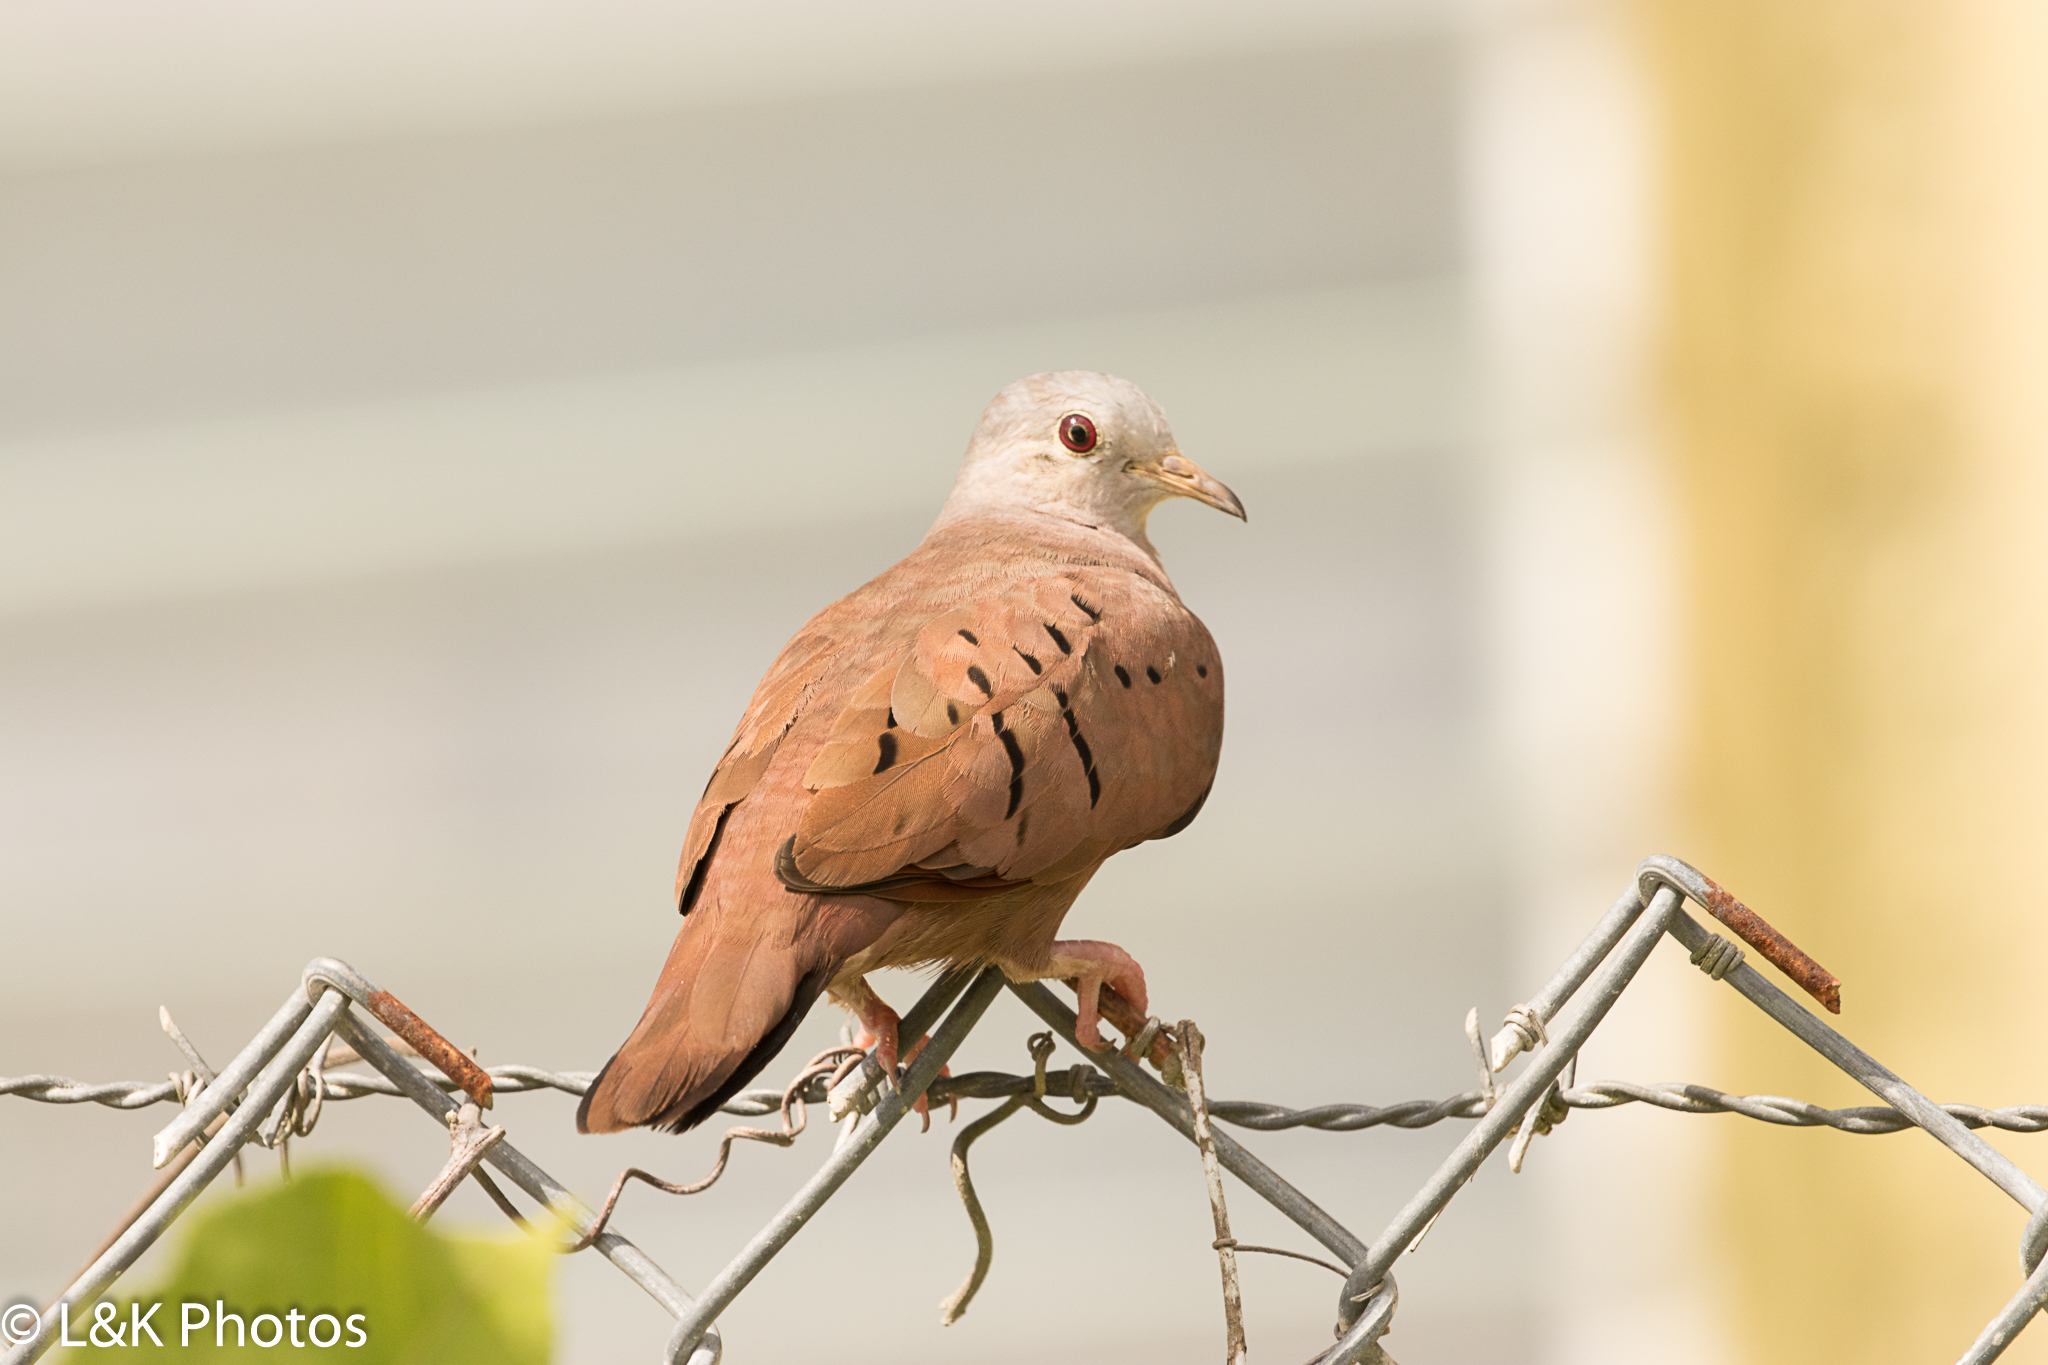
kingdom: Animalia
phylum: Chordata
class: Aves
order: Columbiformes
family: Columbidae
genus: Columbina
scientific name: Columbina talpacoti
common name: Ruddy ground dove
